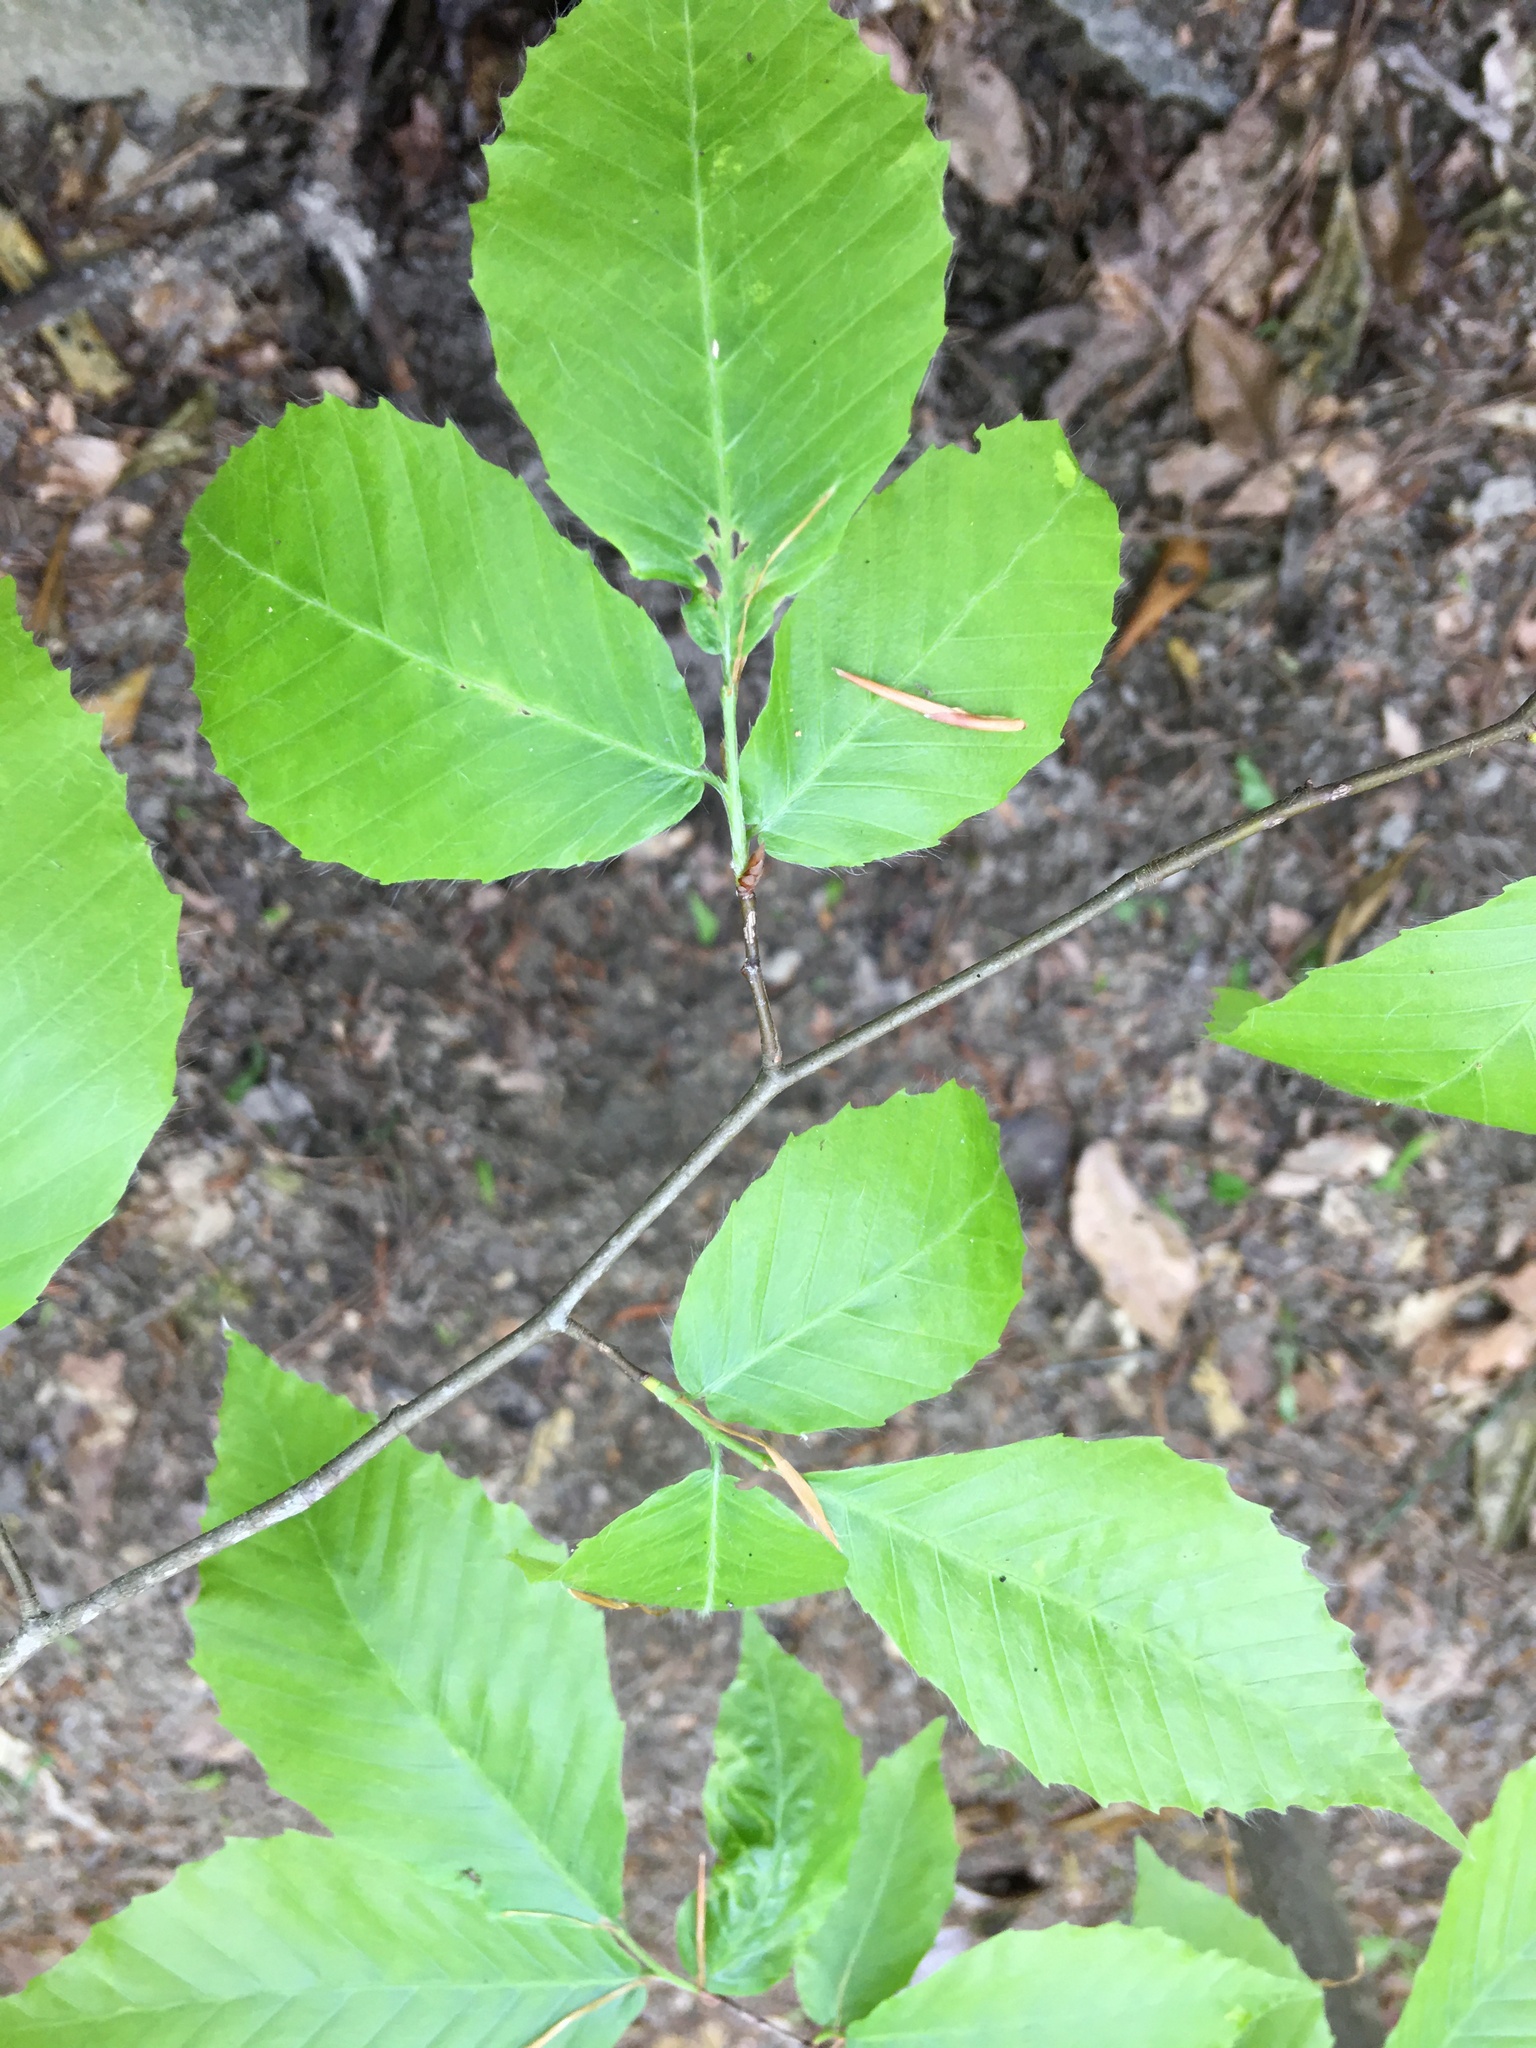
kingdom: Plantae
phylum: Tracheophyta
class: Magnoliopsida
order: Fagales
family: Fagaceae
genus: Fagus
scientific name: Fagus grandifolia
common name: American beech
